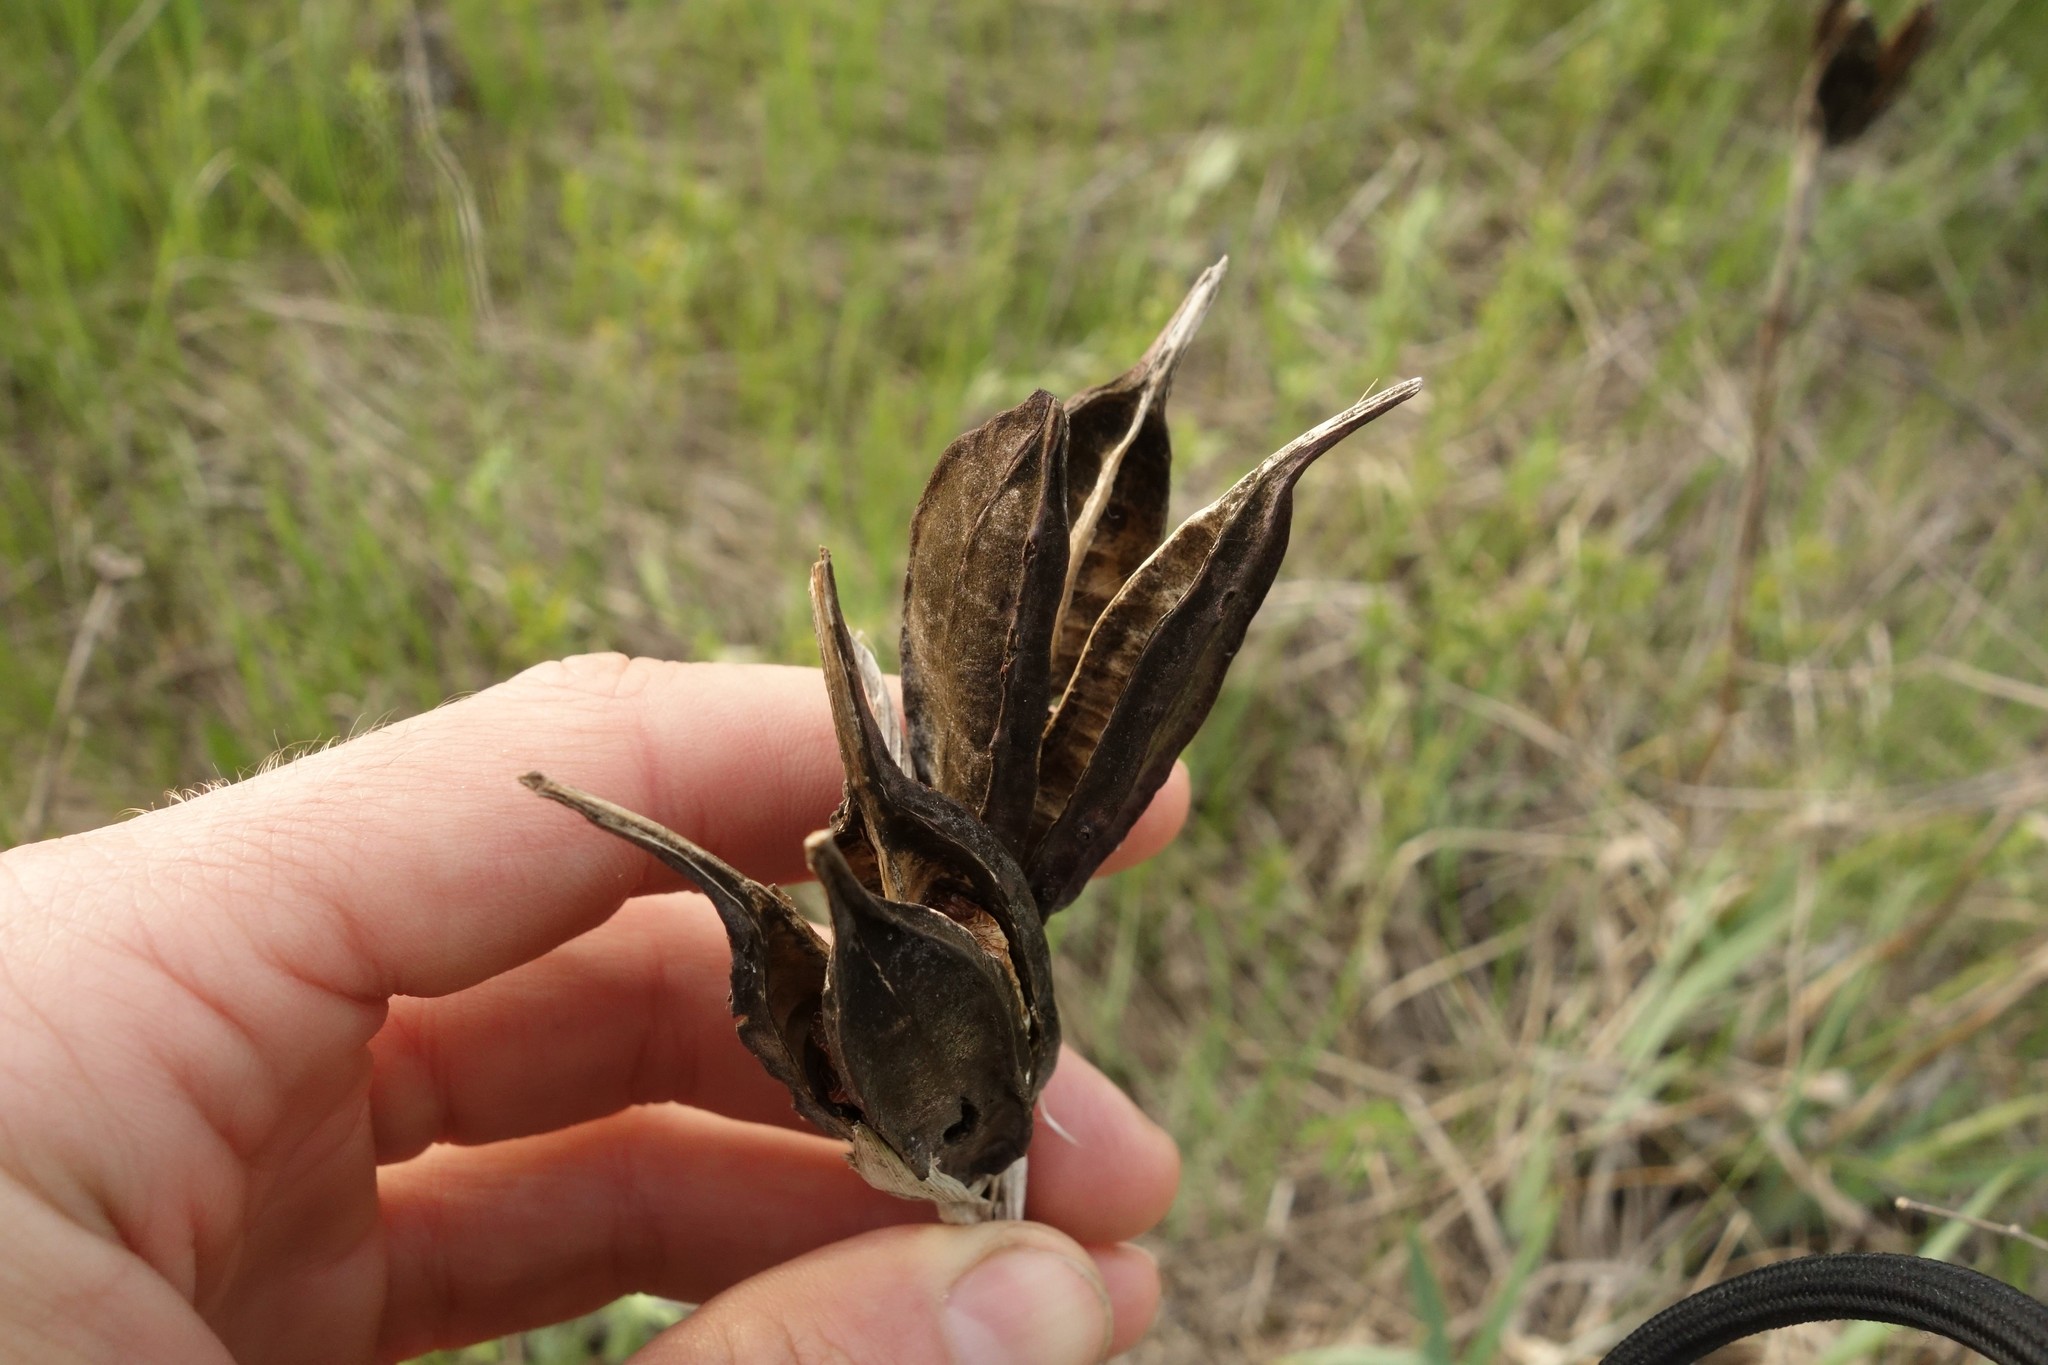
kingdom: Plantae
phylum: Tracheophyta
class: Liliopsida
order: Asparagales
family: Iridaceae
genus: Iris
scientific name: Iris halophila
